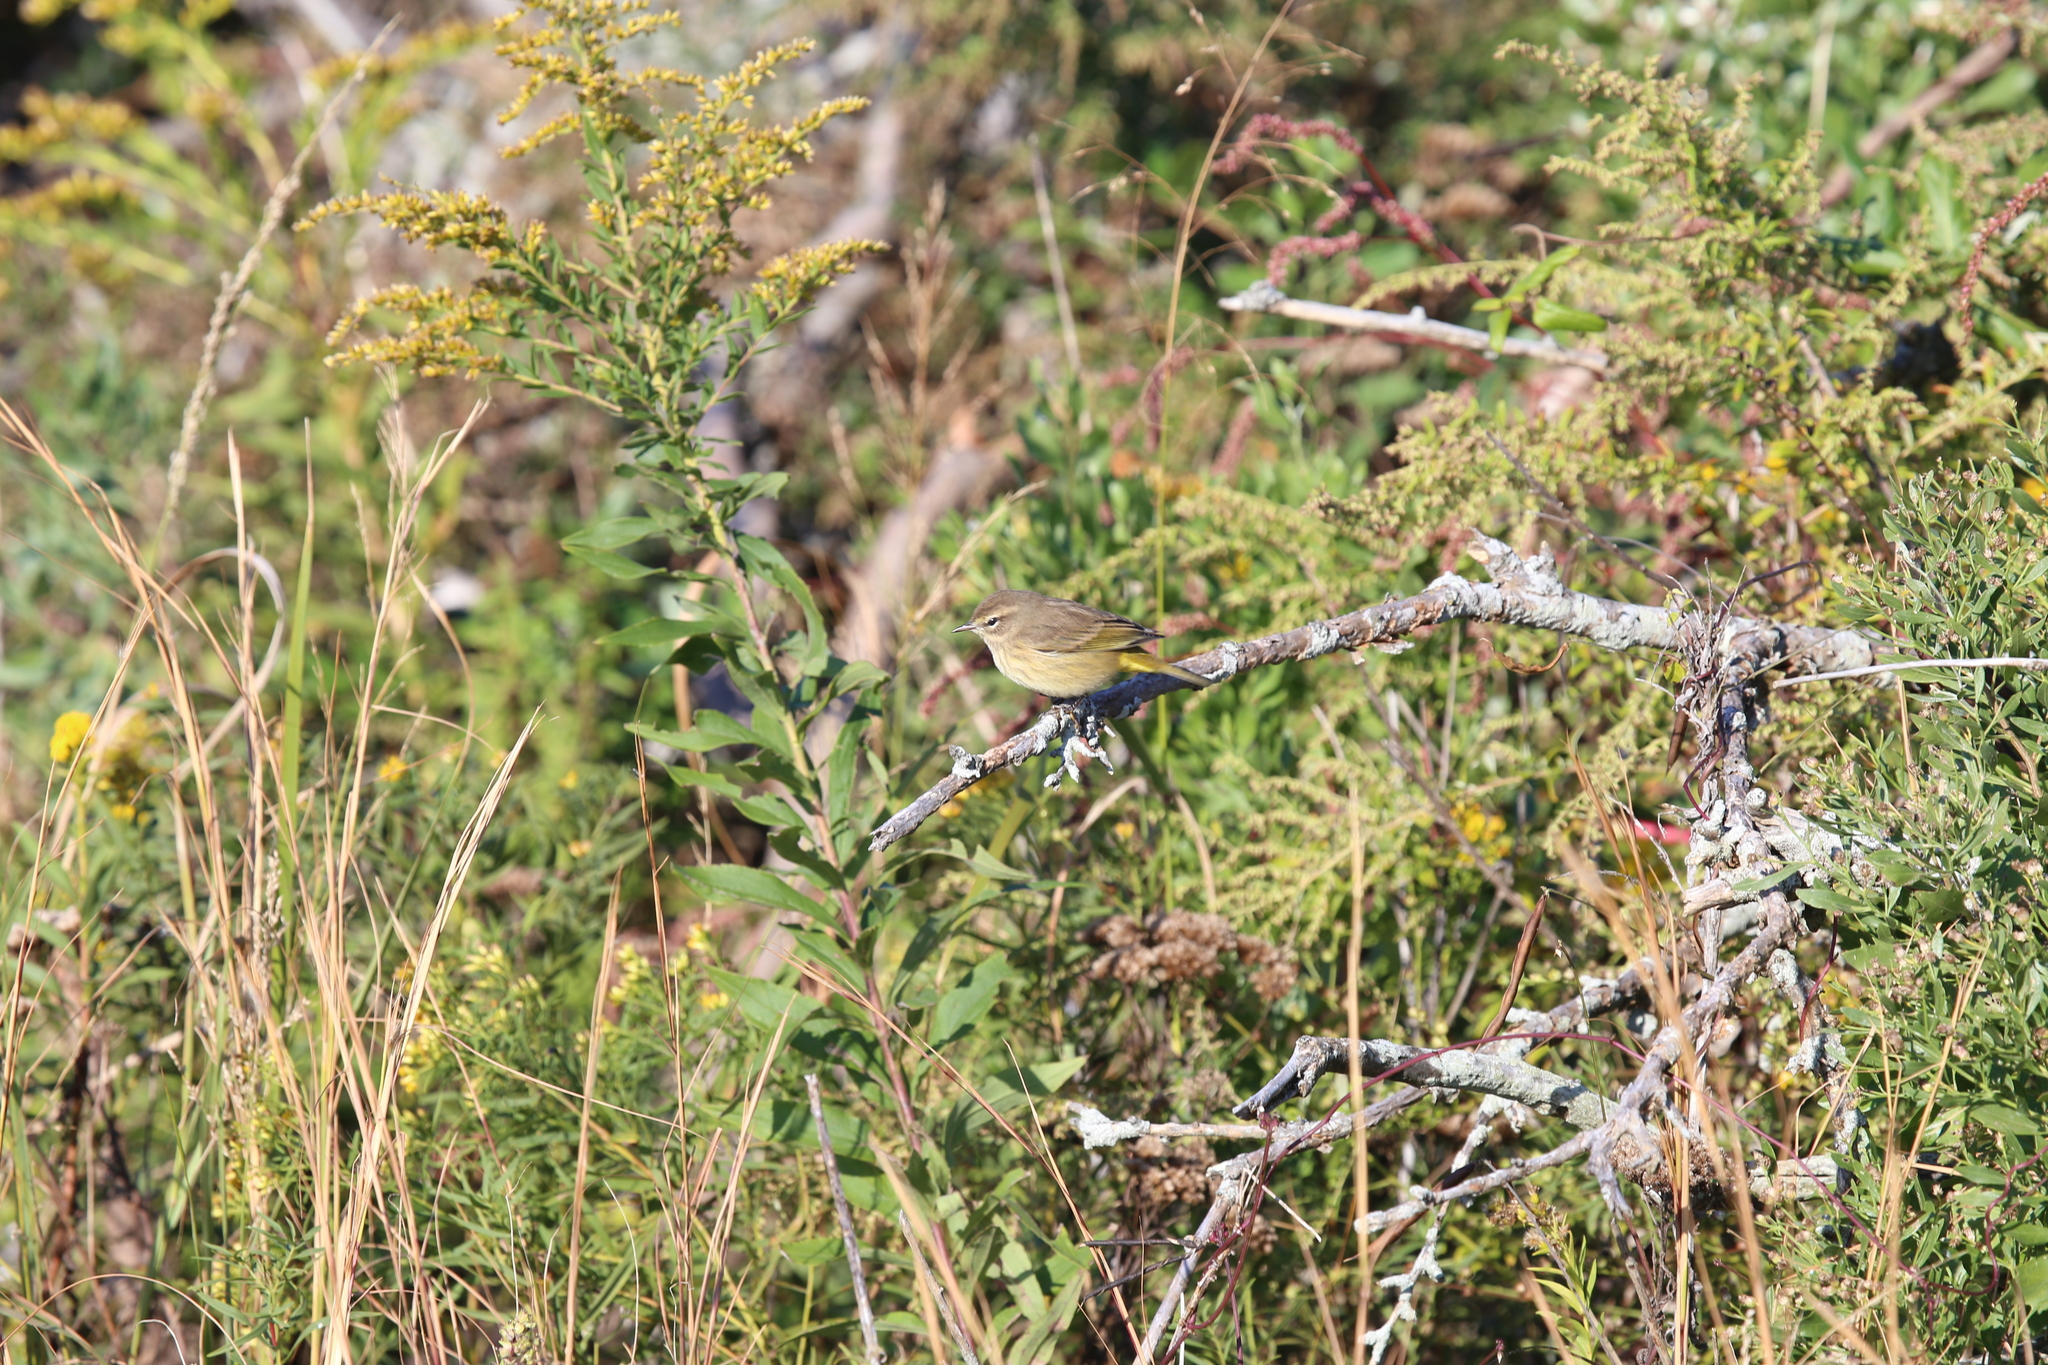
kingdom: Animalia
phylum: Chordata
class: Aves
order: Passeriformes
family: Parulidae
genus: Setophaga
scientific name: Setophaga palmarum
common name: Palm warbler
